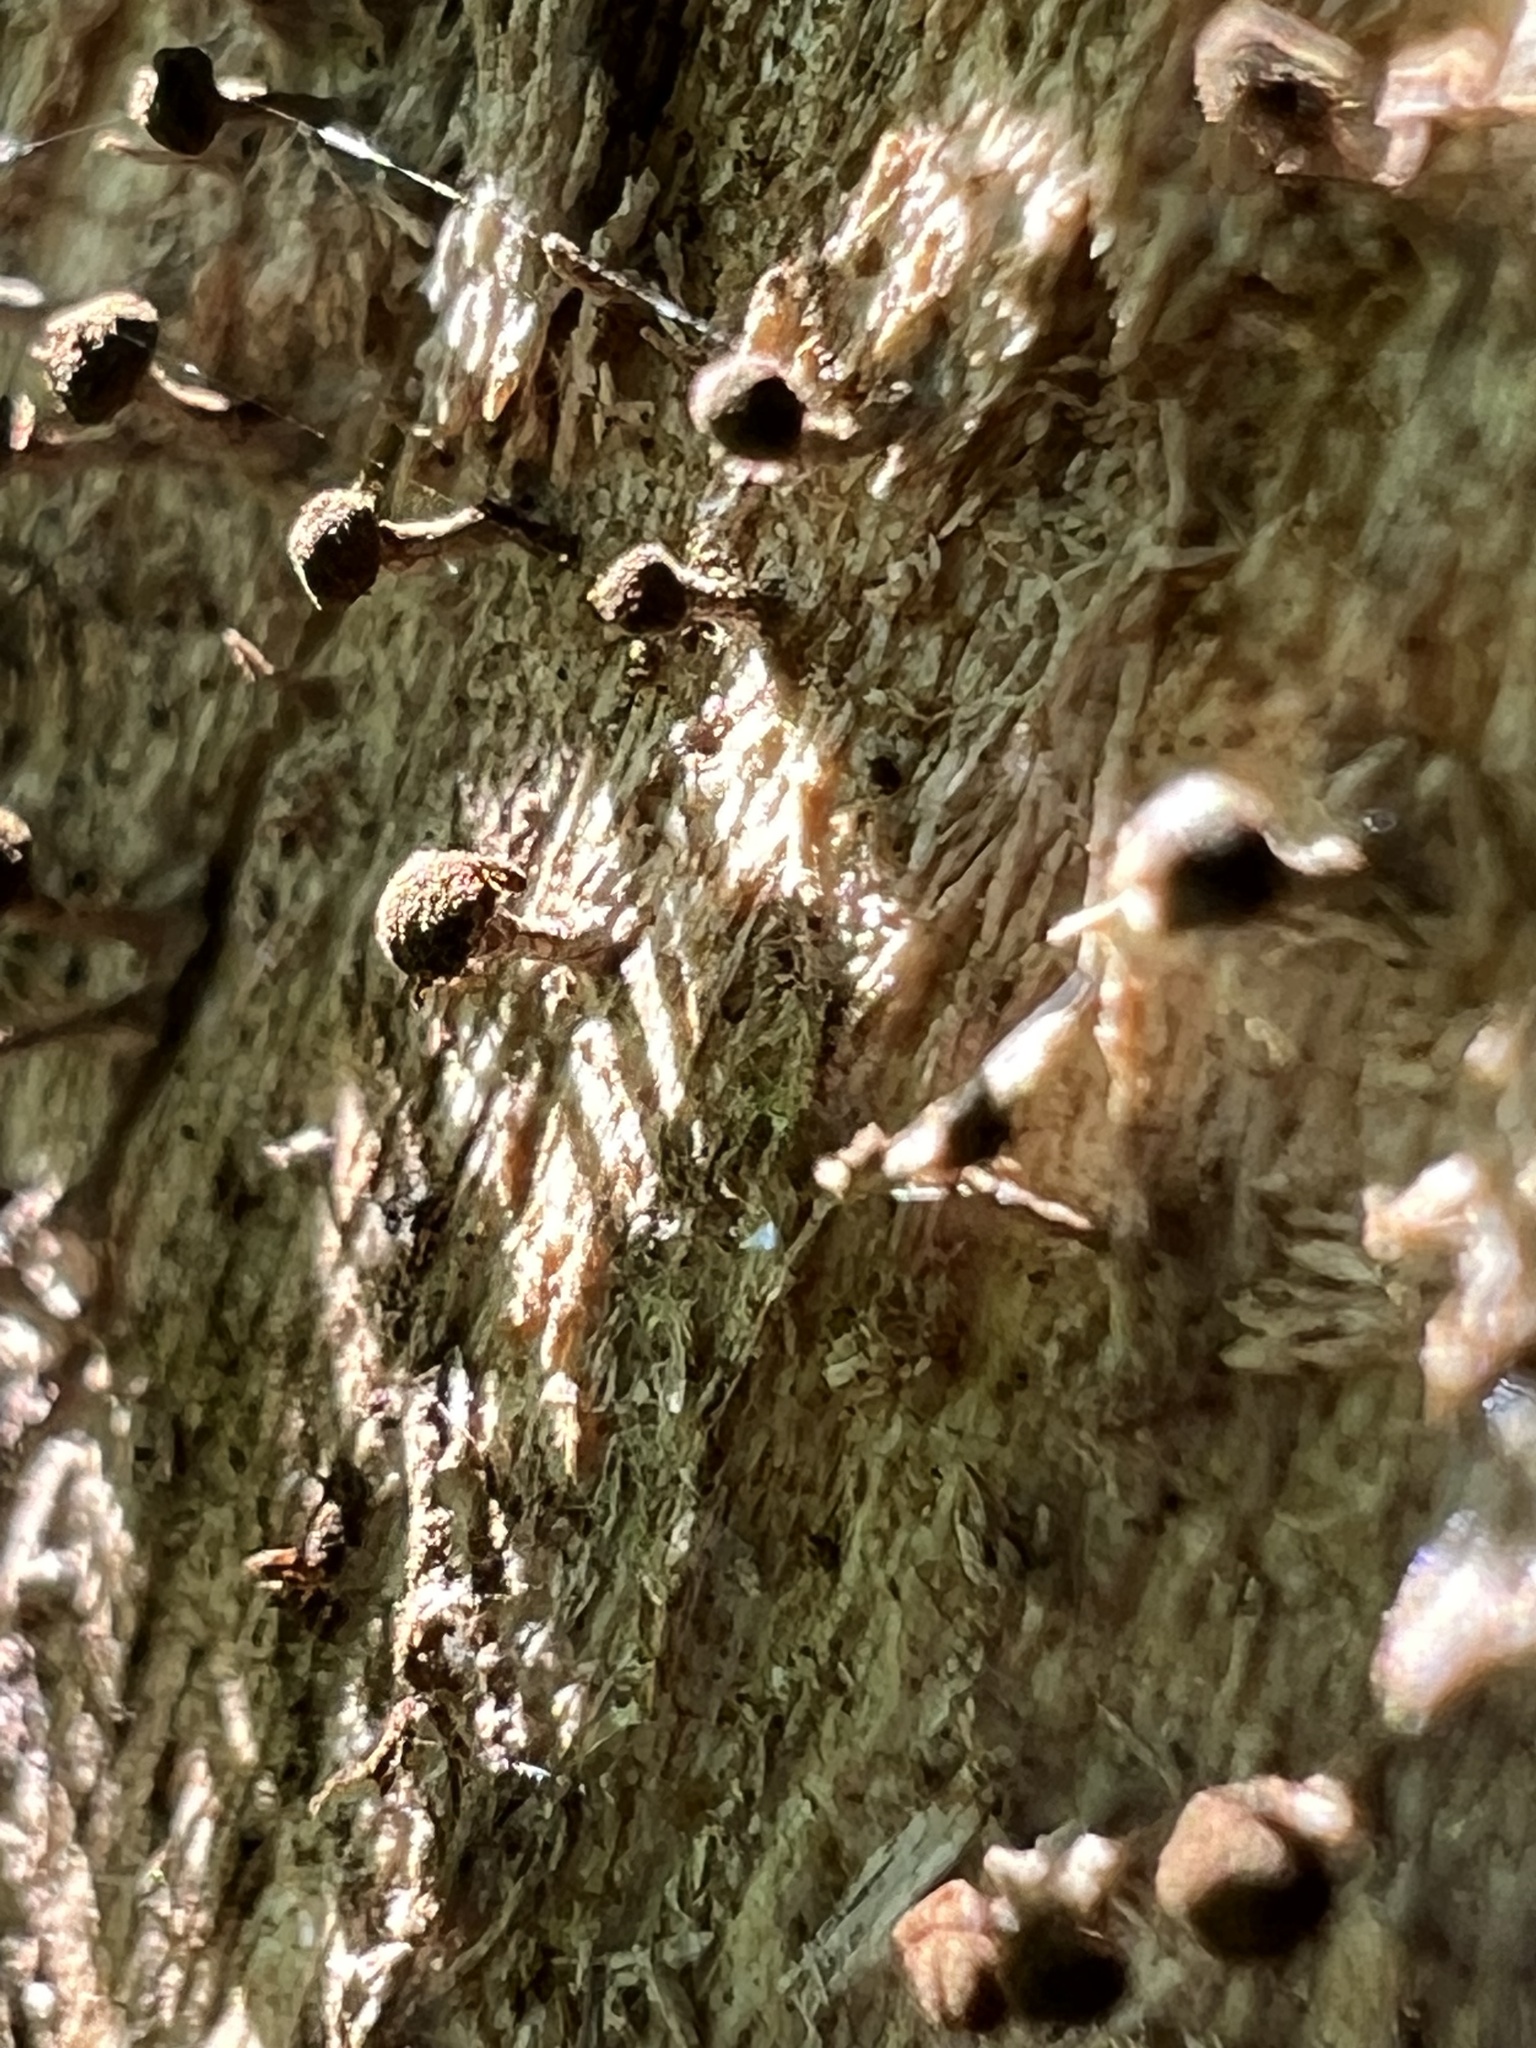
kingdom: Fungi
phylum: Basidiomycota
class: Atractiellomycetes
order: Atractiellales
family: Phleogenaceae
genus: Phleogena
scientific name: Phleogena faginea
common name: Fenugreek stalkball
